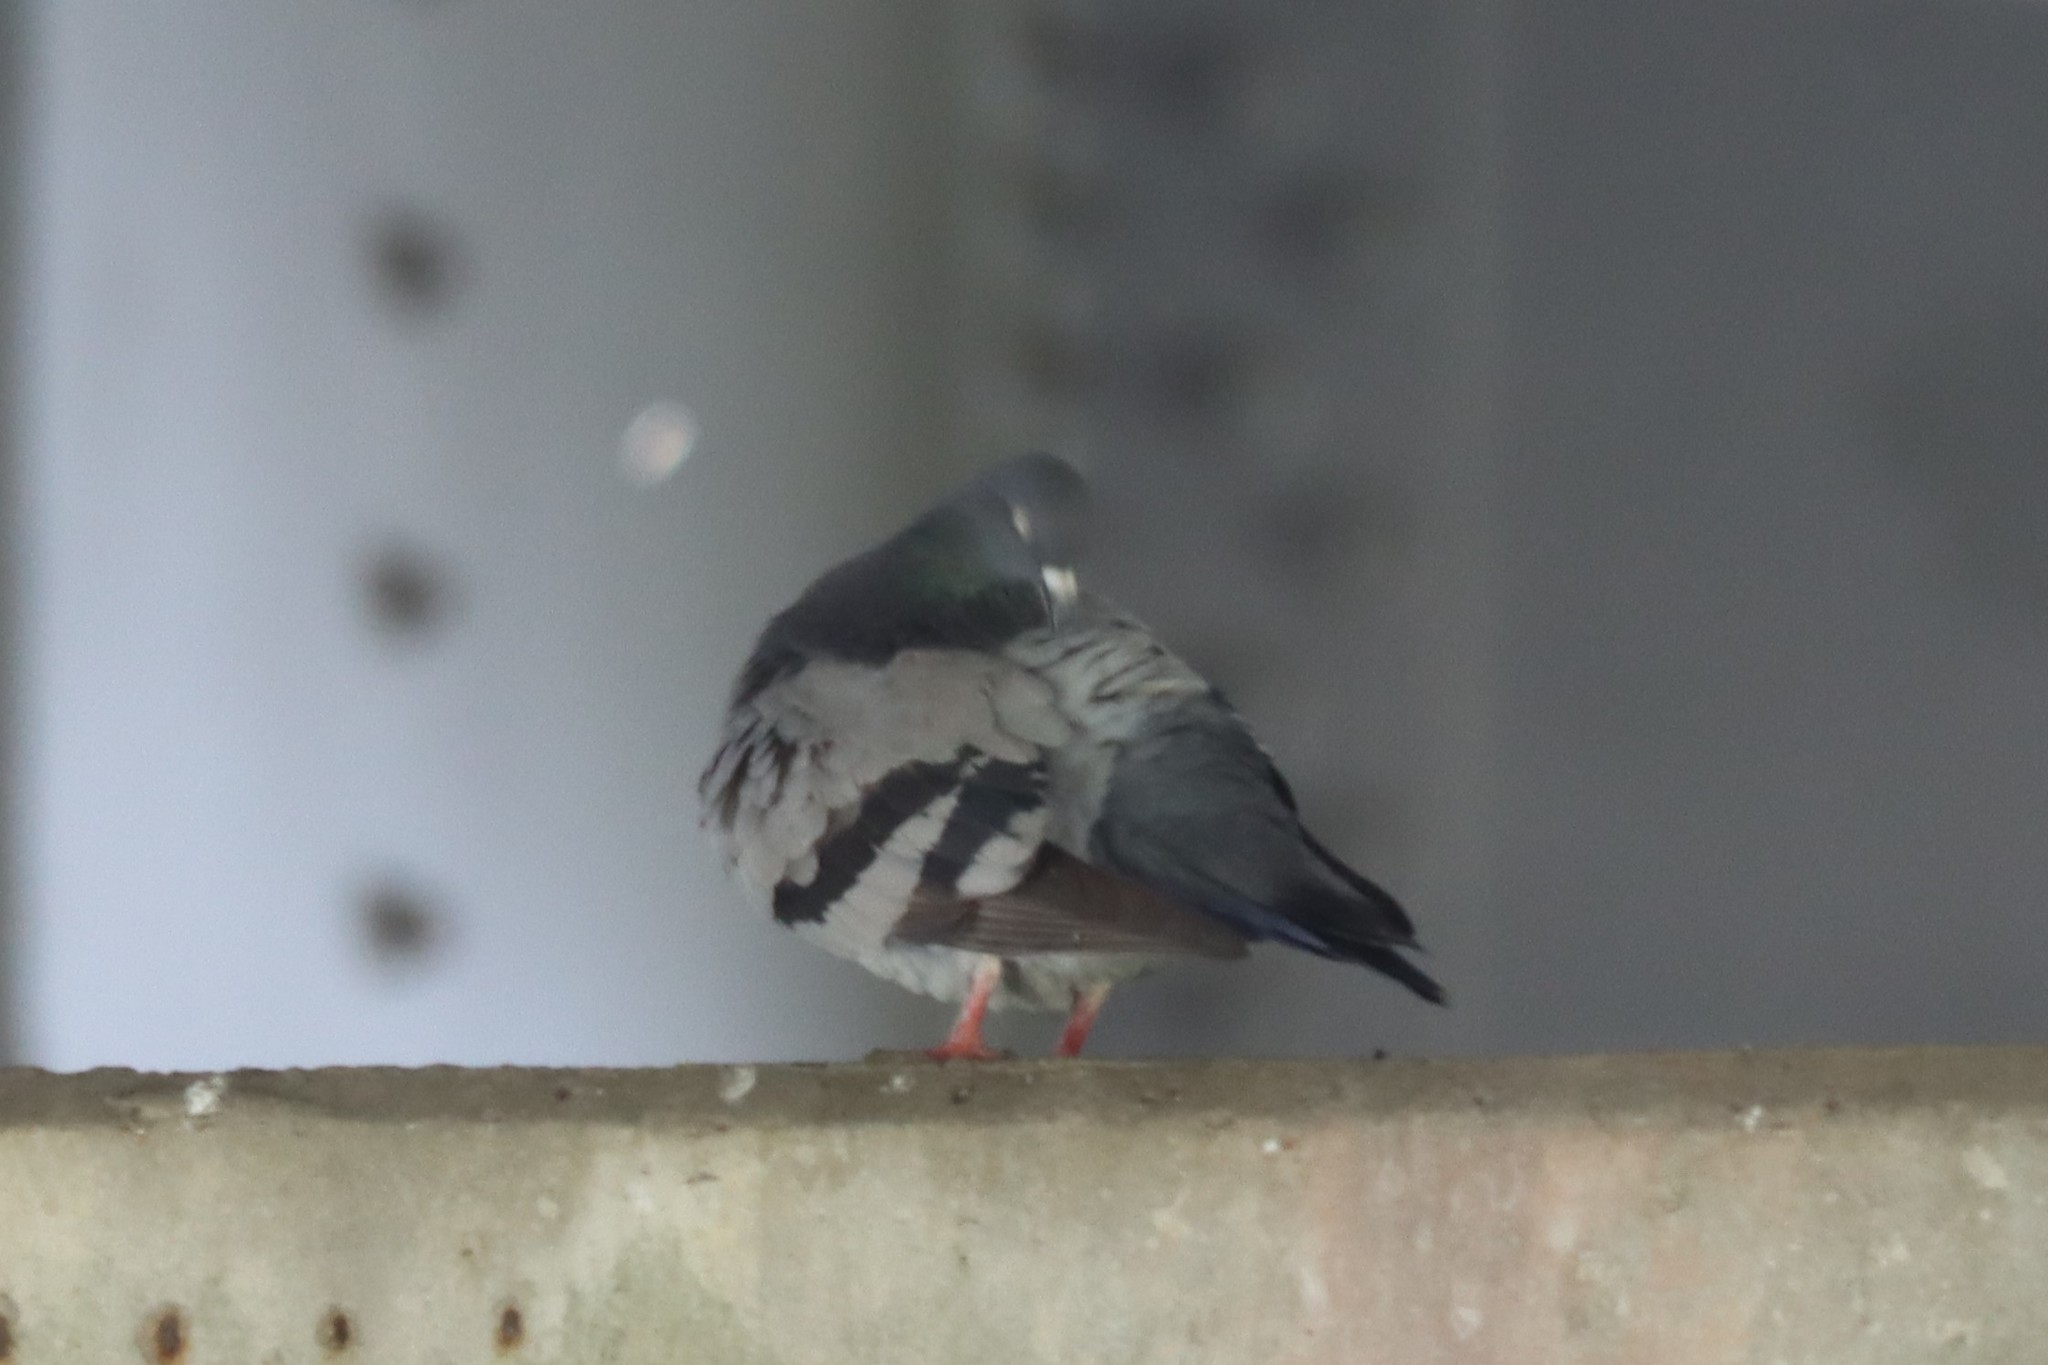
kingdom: Animalia
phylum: Chordata
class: Aves
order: Columbiformes
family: Columbidae
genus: Columba
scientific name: Columba livia
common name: Rock pigeon
